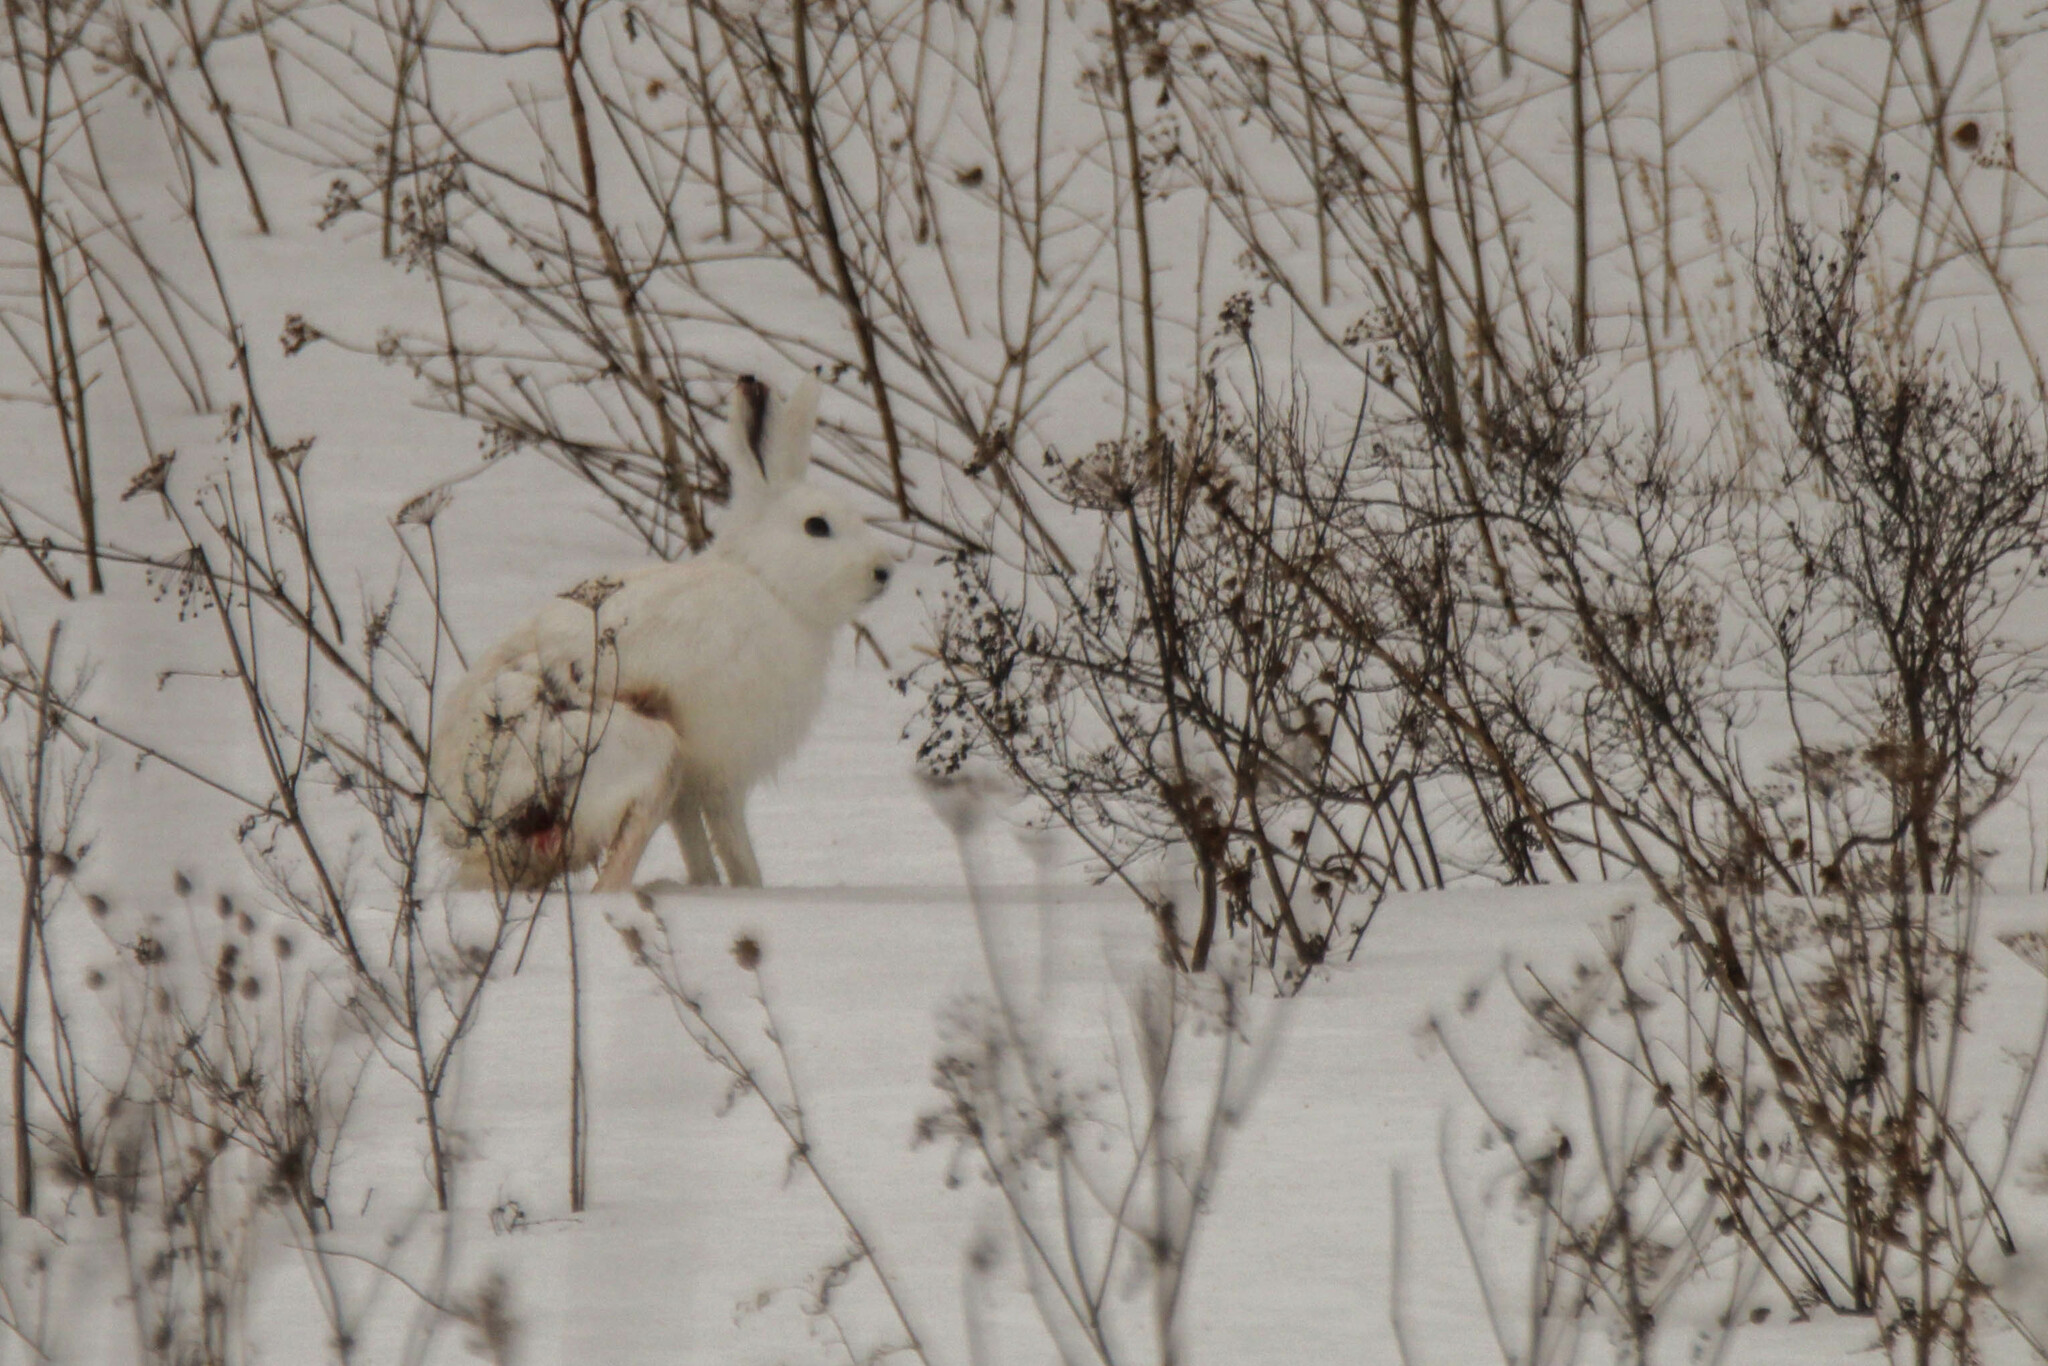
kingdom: Animalia
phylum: Chordata
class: Mammalia
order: Lagomorpha
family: Leporidae
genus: Lepus
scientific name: Lepus timidus
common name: Mountain hare
